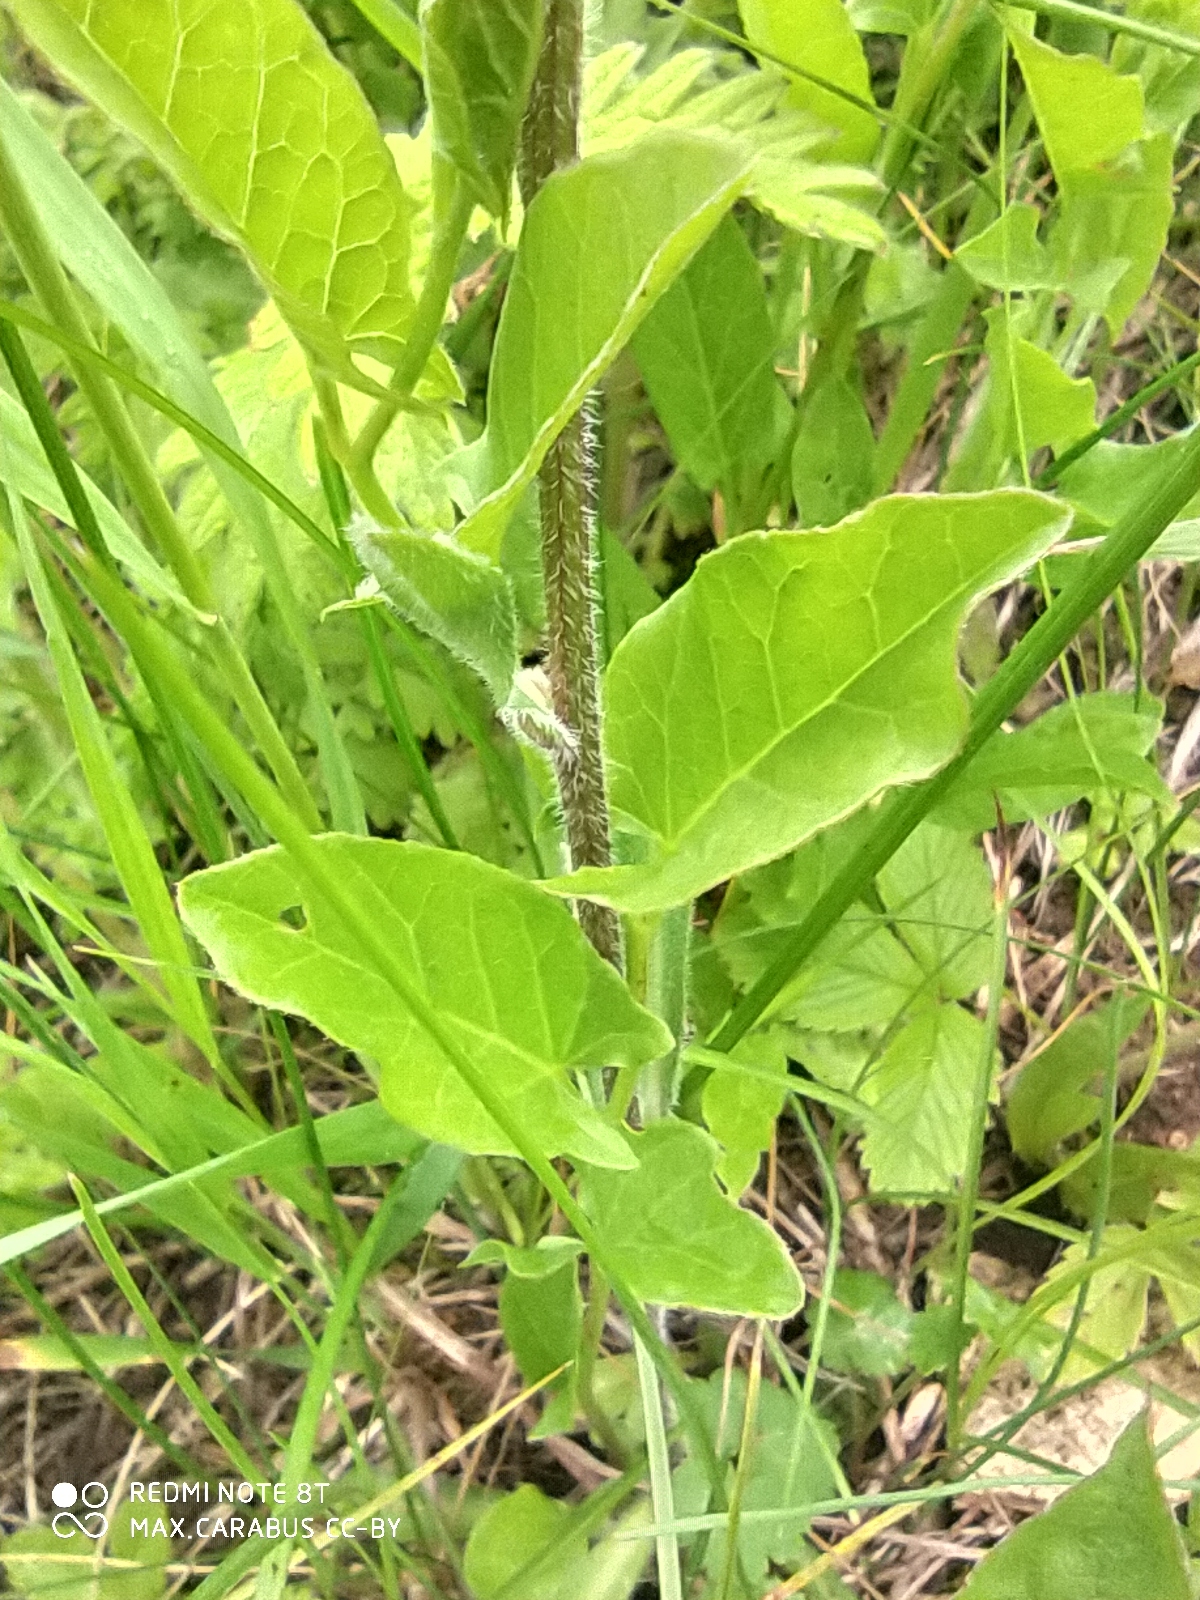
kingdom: Plantae
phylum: Tracheophyta
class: Magnoliopsida
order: Asterales
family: Asteraceae
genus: Erigeron
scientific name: Erigeron acris
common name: Blue fleabane
